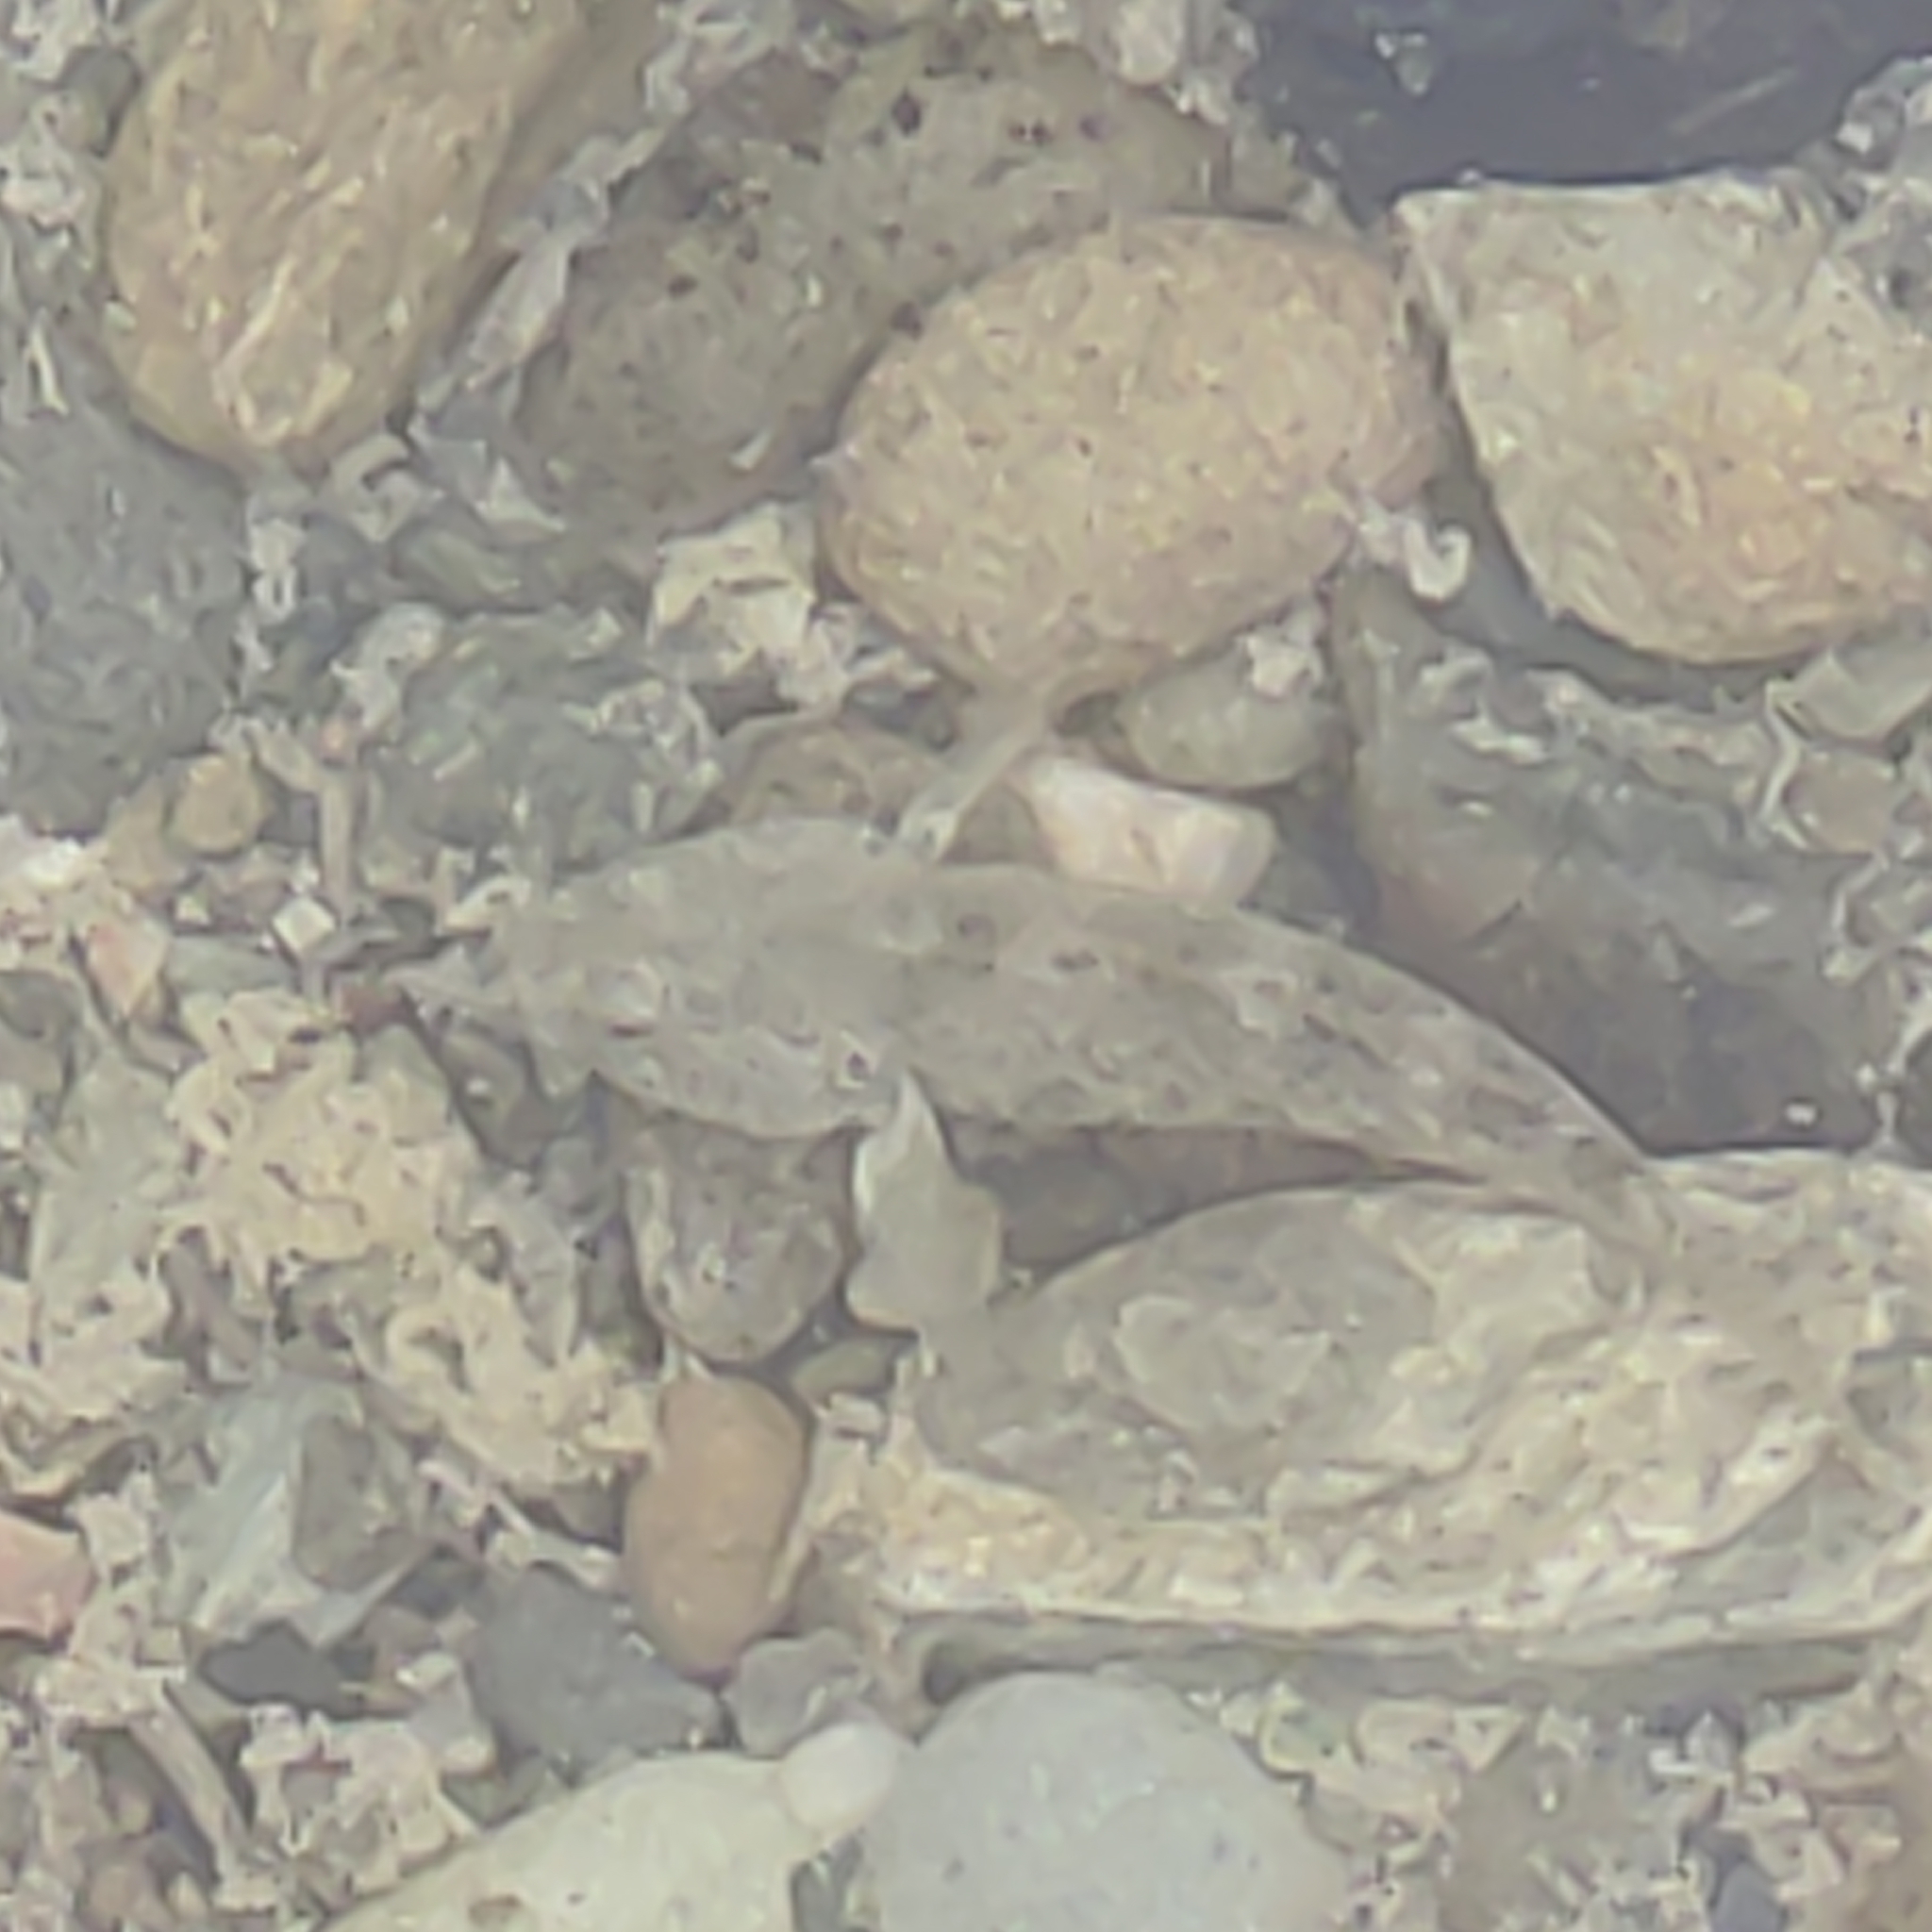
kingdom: Animalia
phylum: Chordata
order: Perciformes
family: Eleotridae
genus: Gobiomorphus
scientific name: Gobiomorphus breviceps
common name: Upland bully
